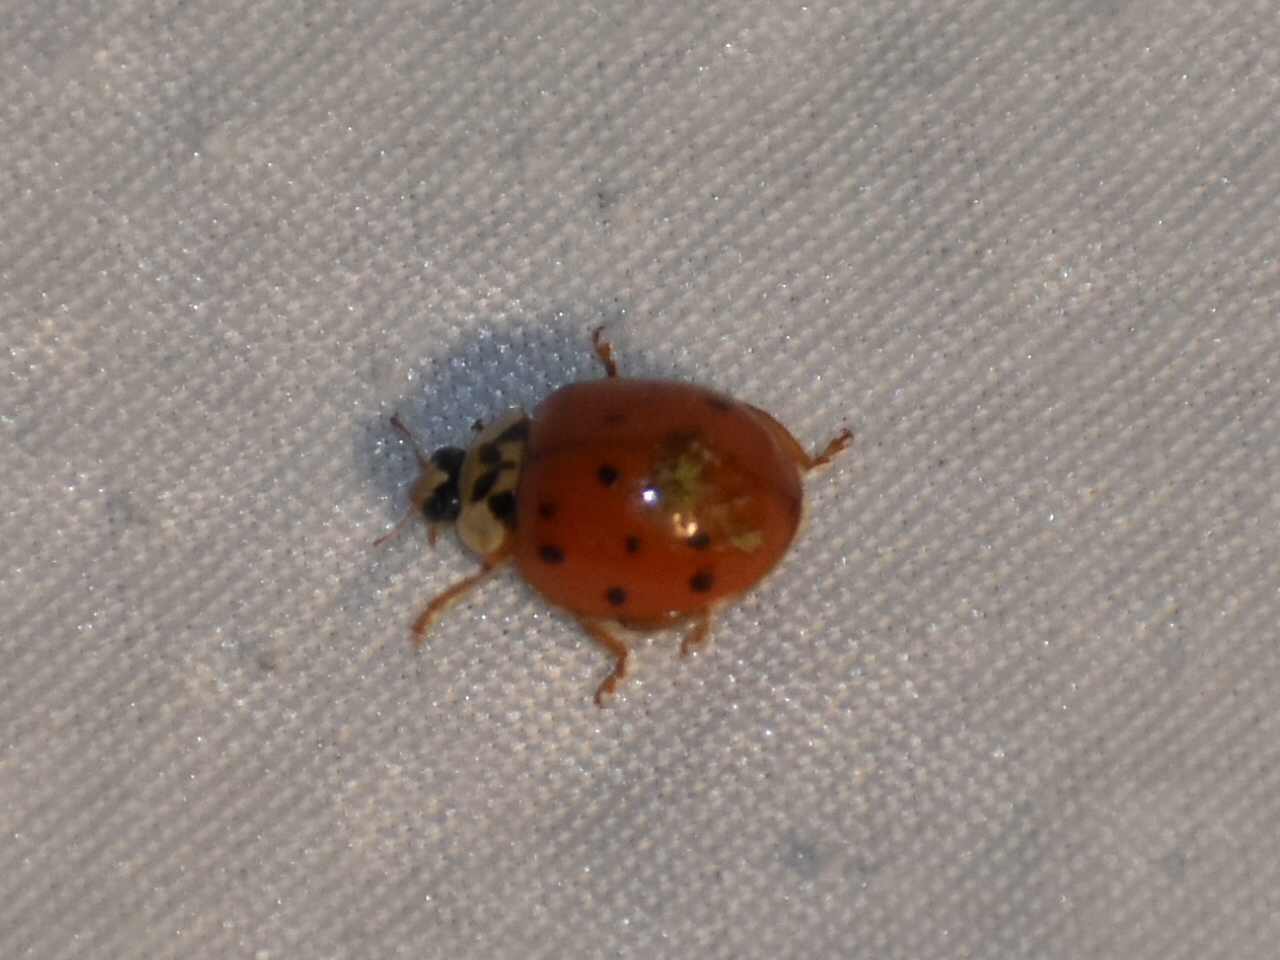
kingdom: Animalia
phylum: Arthropoda
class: Insecta
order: Coleoptera
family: Coccinellidae
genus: Harmonia
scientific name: Harmonia axyridis
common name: Harlequin ladybird
